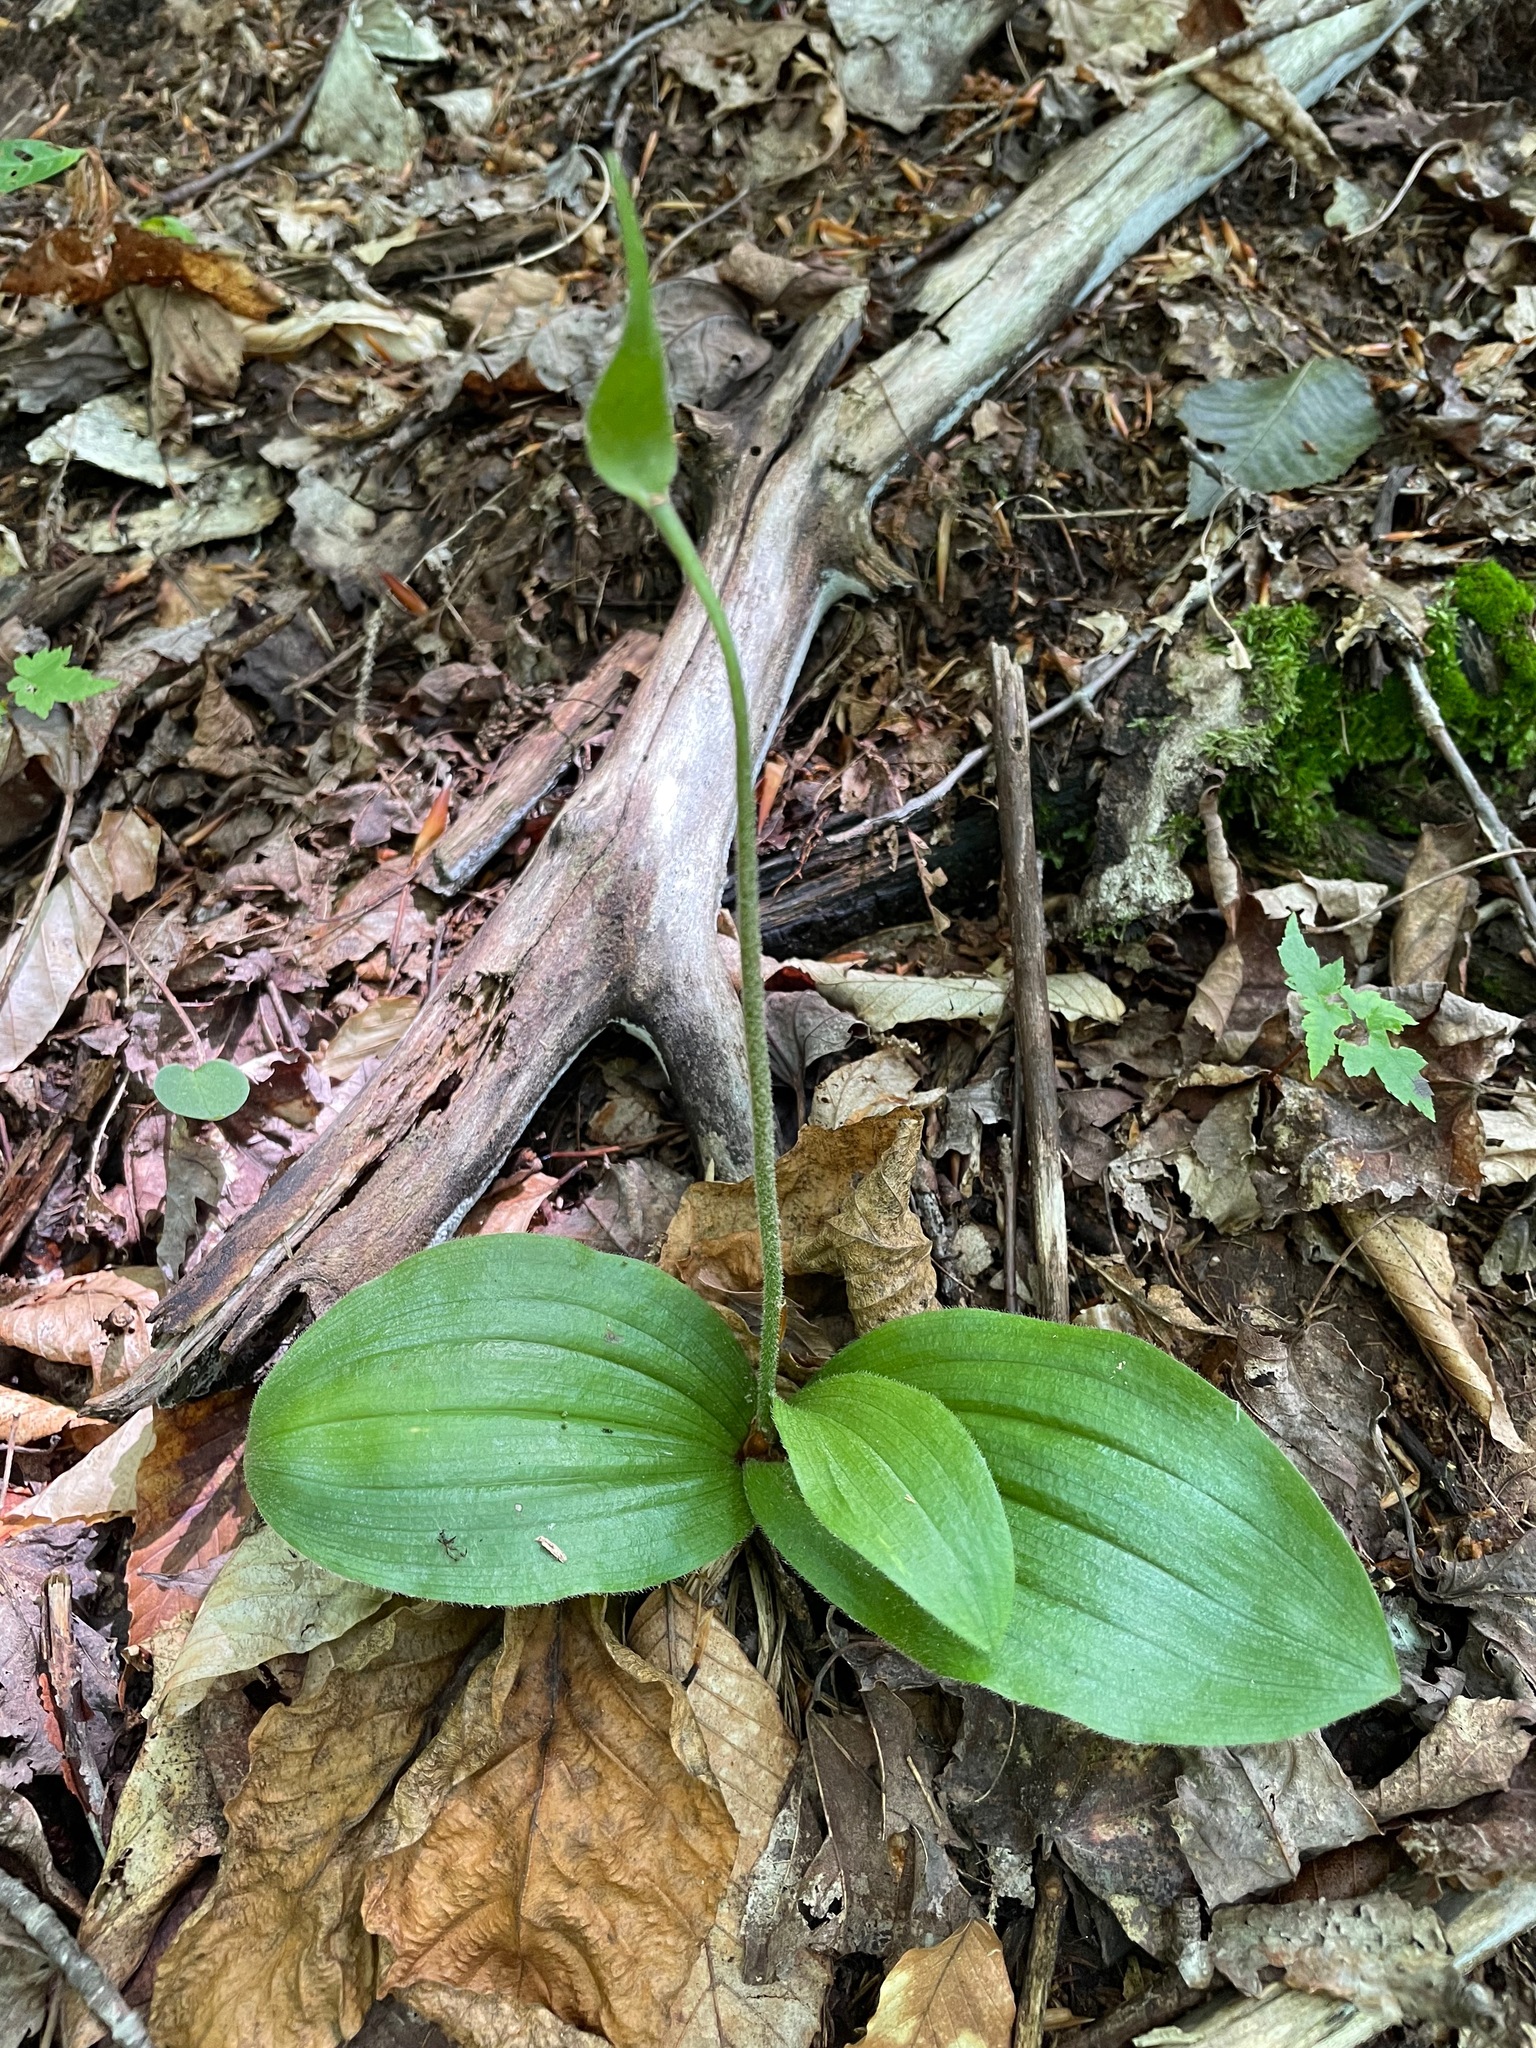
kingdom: Plantae
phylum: Tracheophyta
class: Liliopsida
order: Asparagales
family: Orchidaceae
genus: Cypripedium
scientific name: Cypripedium acaule
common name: Pink lady's-slipper
